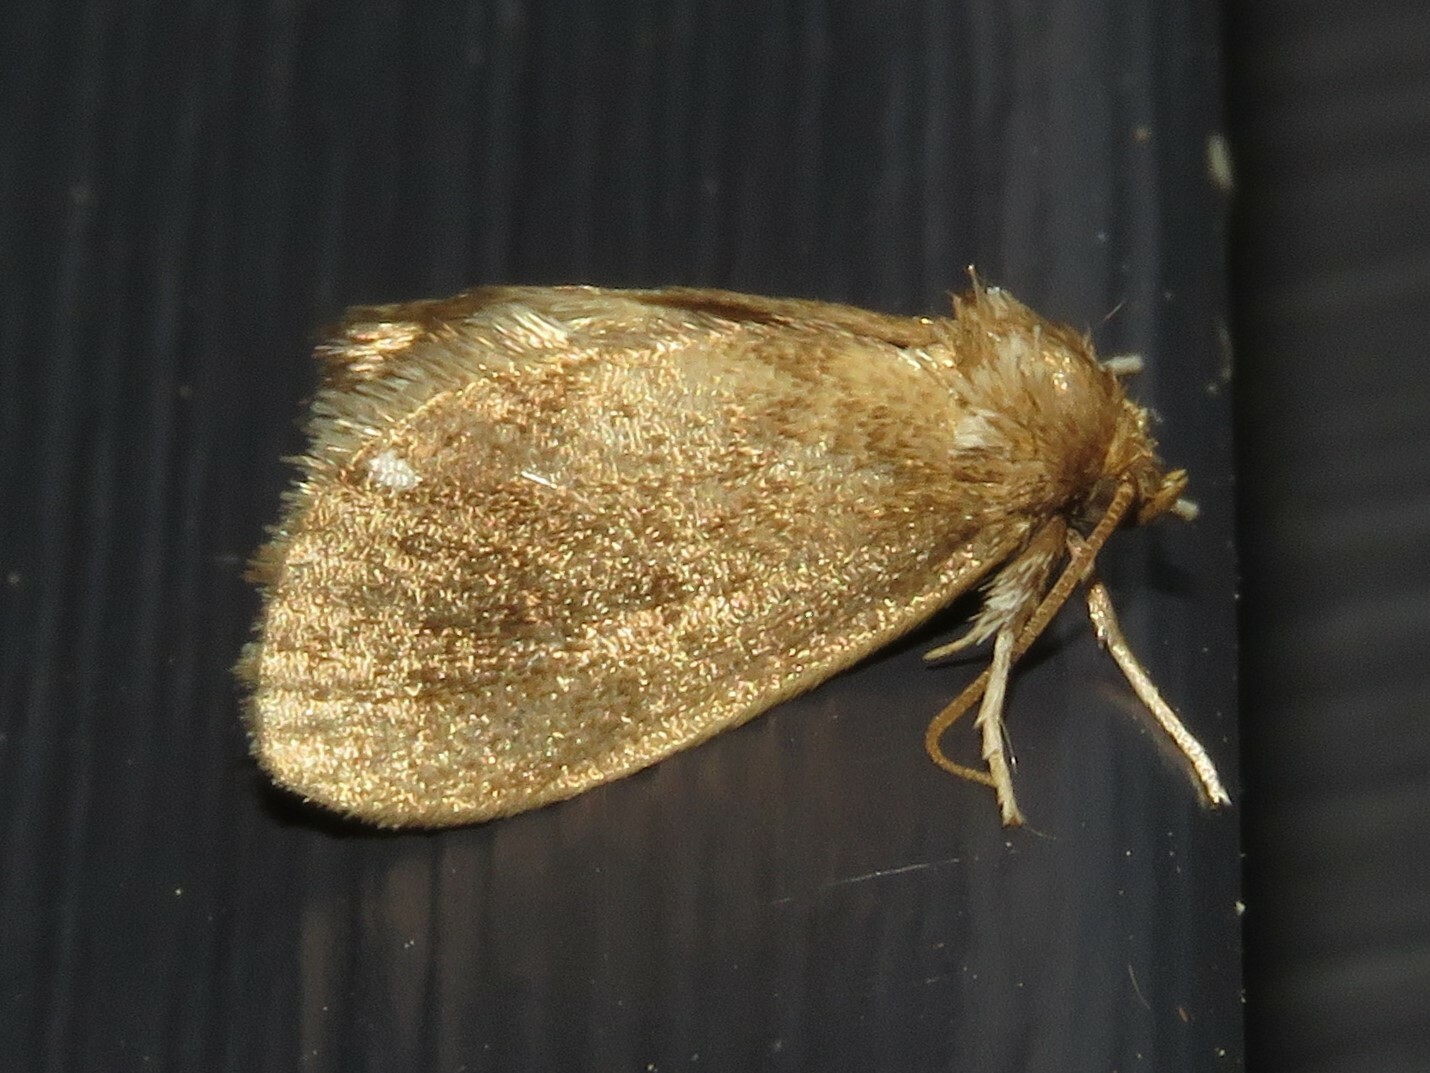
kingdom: Animalia
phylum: Arthropoda
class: Insecta
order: Lepidoptera
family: Limacodidae
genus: Packardia
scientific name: Packardia geminata
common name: Jeweled tailed slug moth
